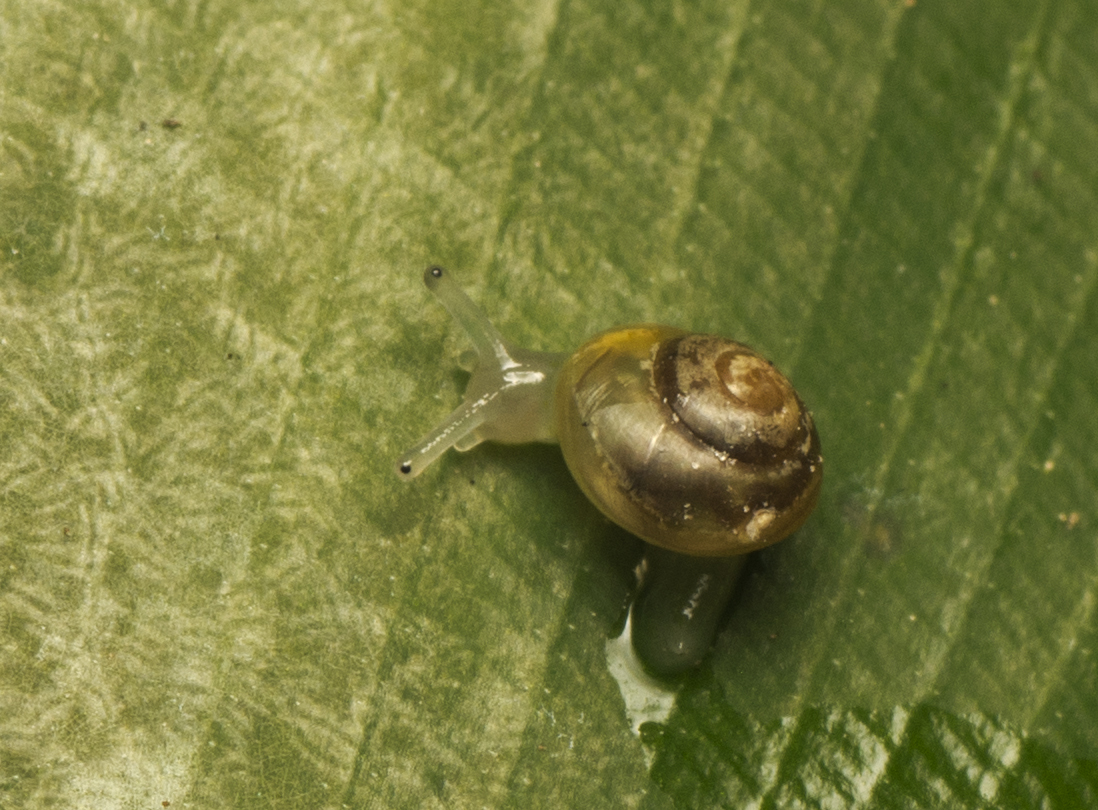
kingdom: Animalia
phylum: Mollusca
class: Gastropoda
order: Stylommatophora
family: Euconulidae
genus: Coneuplecta
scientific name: Coneuplecta pampini
